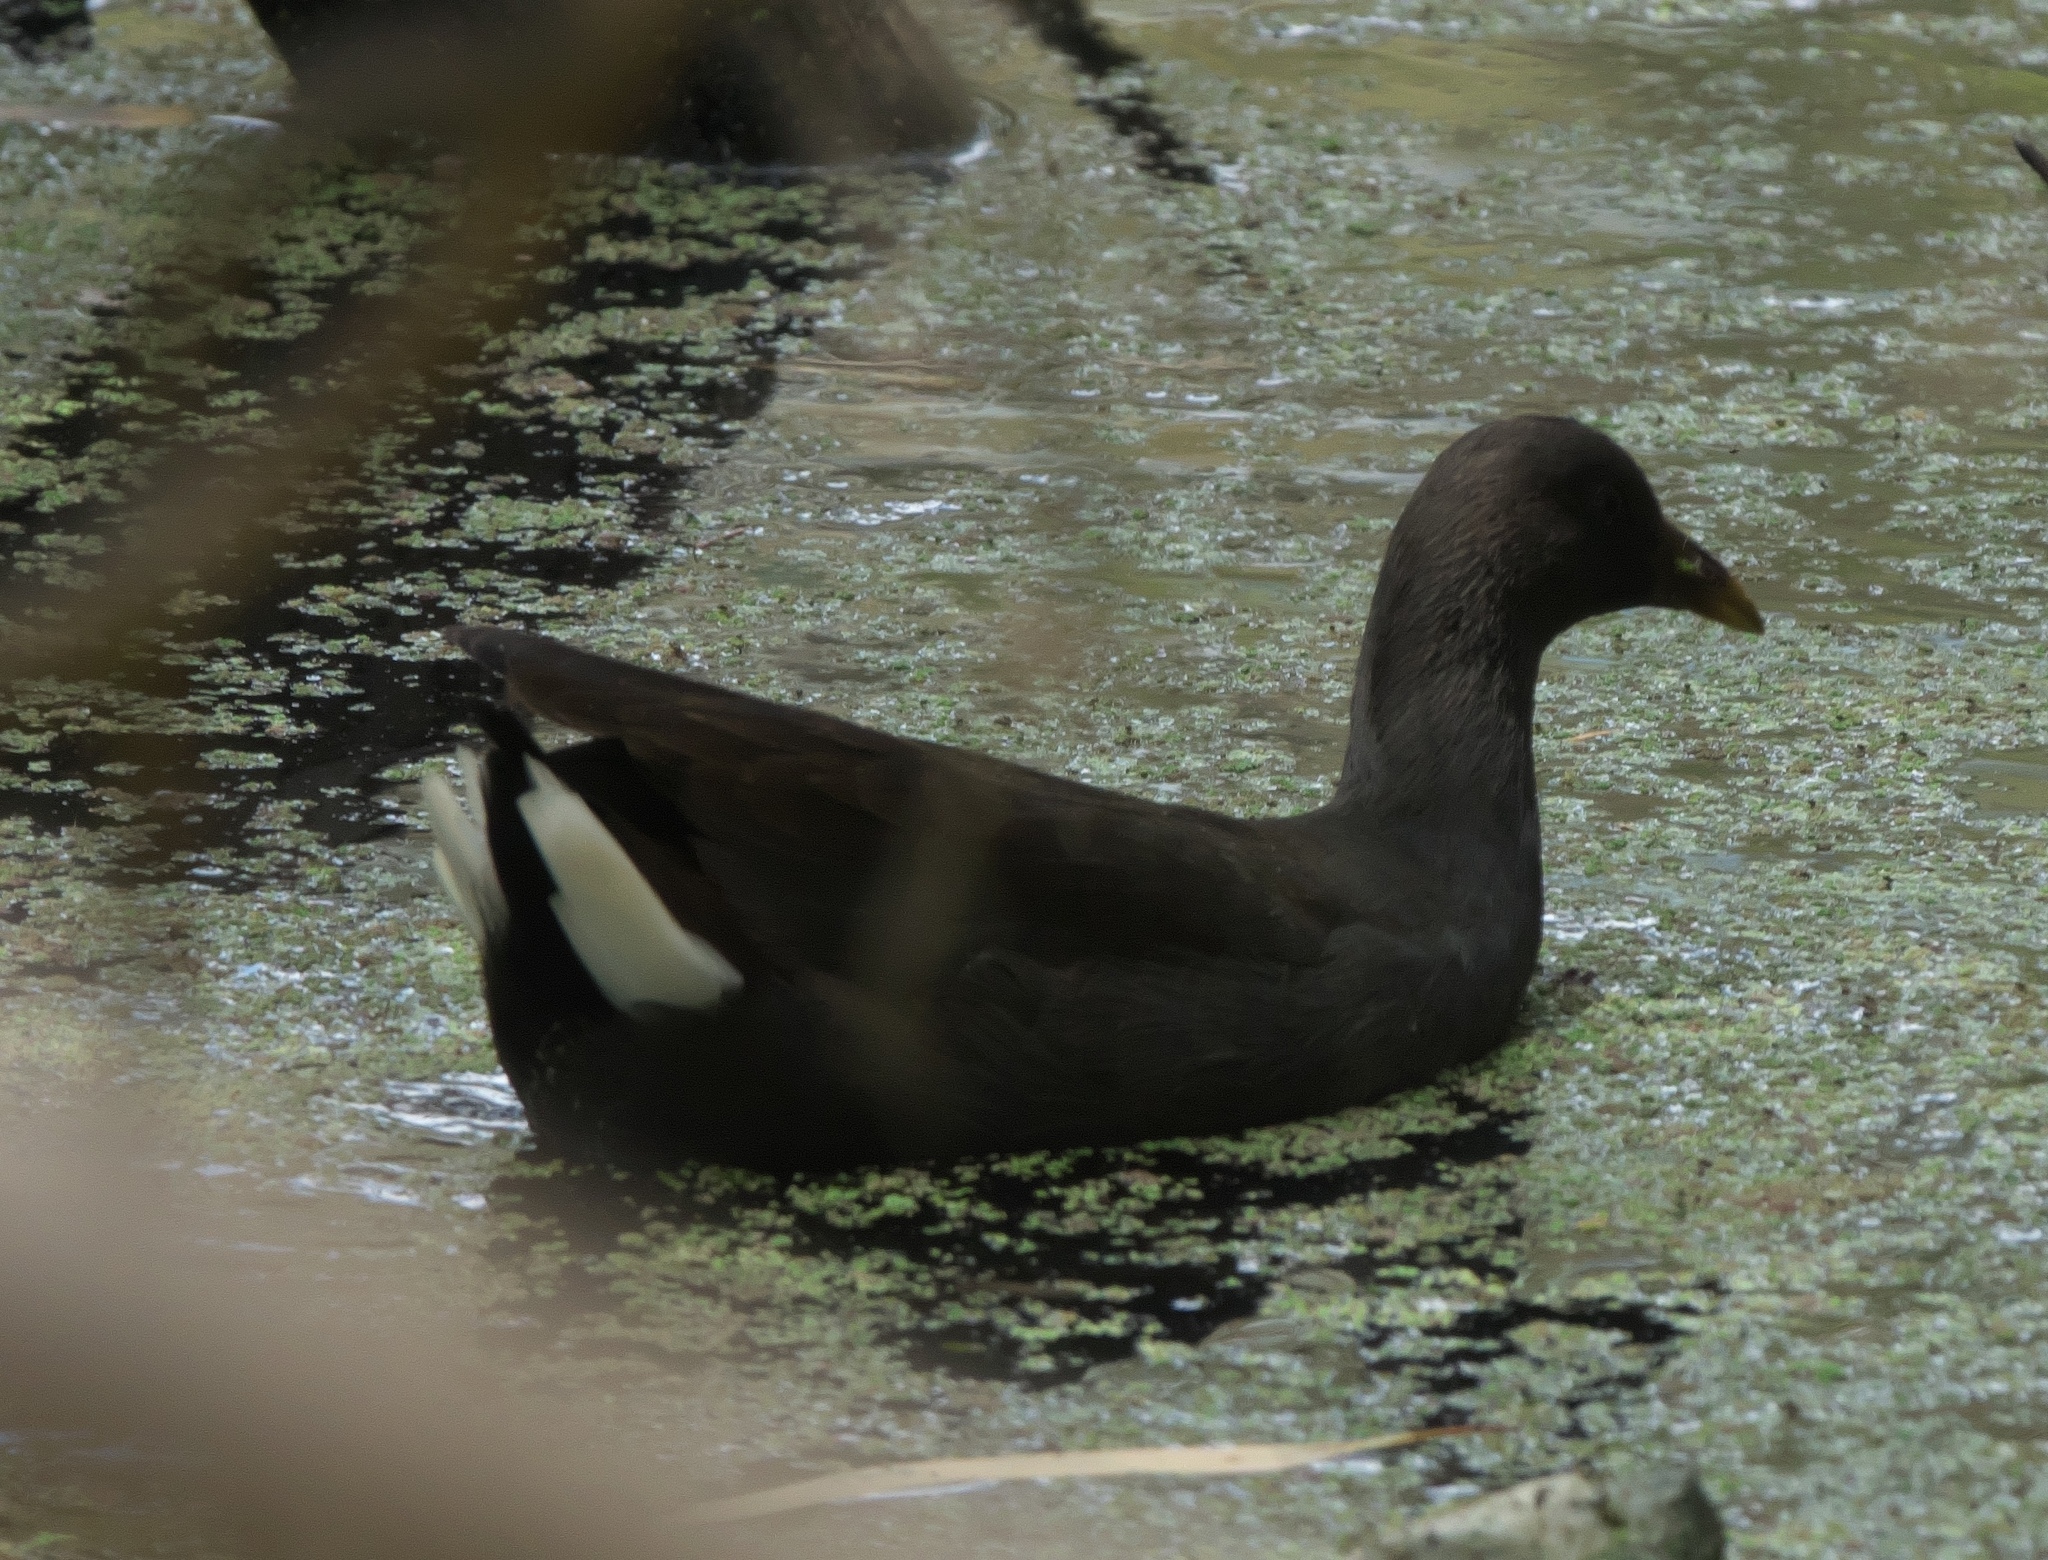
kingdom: Animalia
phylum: Chordata
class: Aves
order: Gruiformes
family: Rallidae
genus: Gallinula
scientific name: Gallinula tenebrosa
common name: Dusky moorhen
